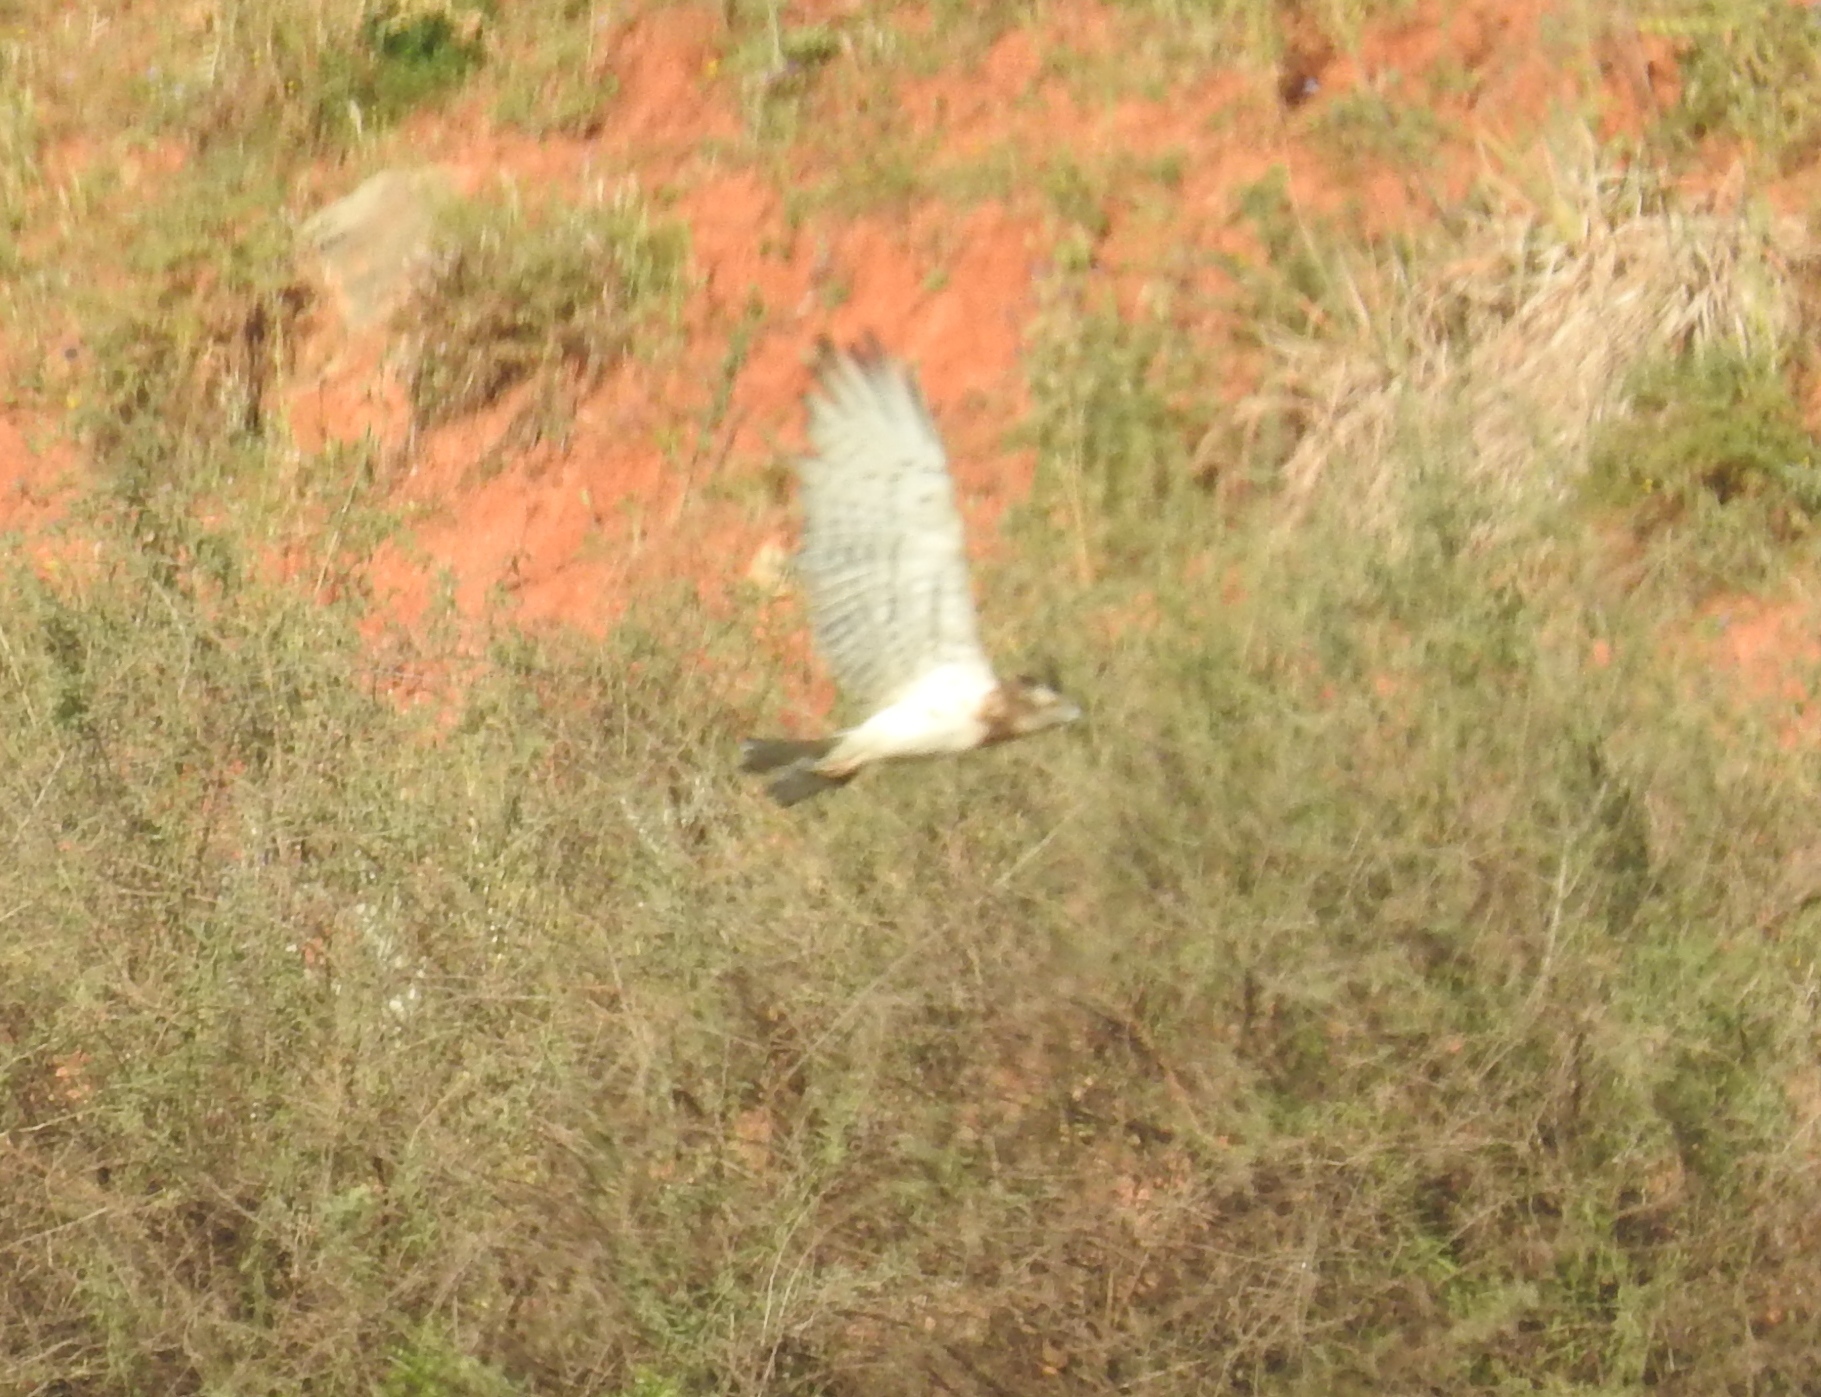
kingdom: Animalia
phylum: Chordata
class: Aves
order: Accipitriformes
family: Accipitridae
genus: Circaetus
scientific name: Circaetus gallicus
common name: Short-toed snake eagle
